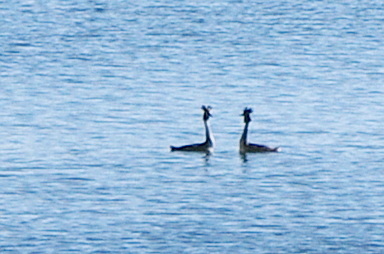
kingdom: Animalia
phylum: Chordata
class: Aves
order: Podicipediformes
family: Podicipedidae
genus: Podiceps
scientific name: Podiceps cristatus
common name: Great crested grebe
